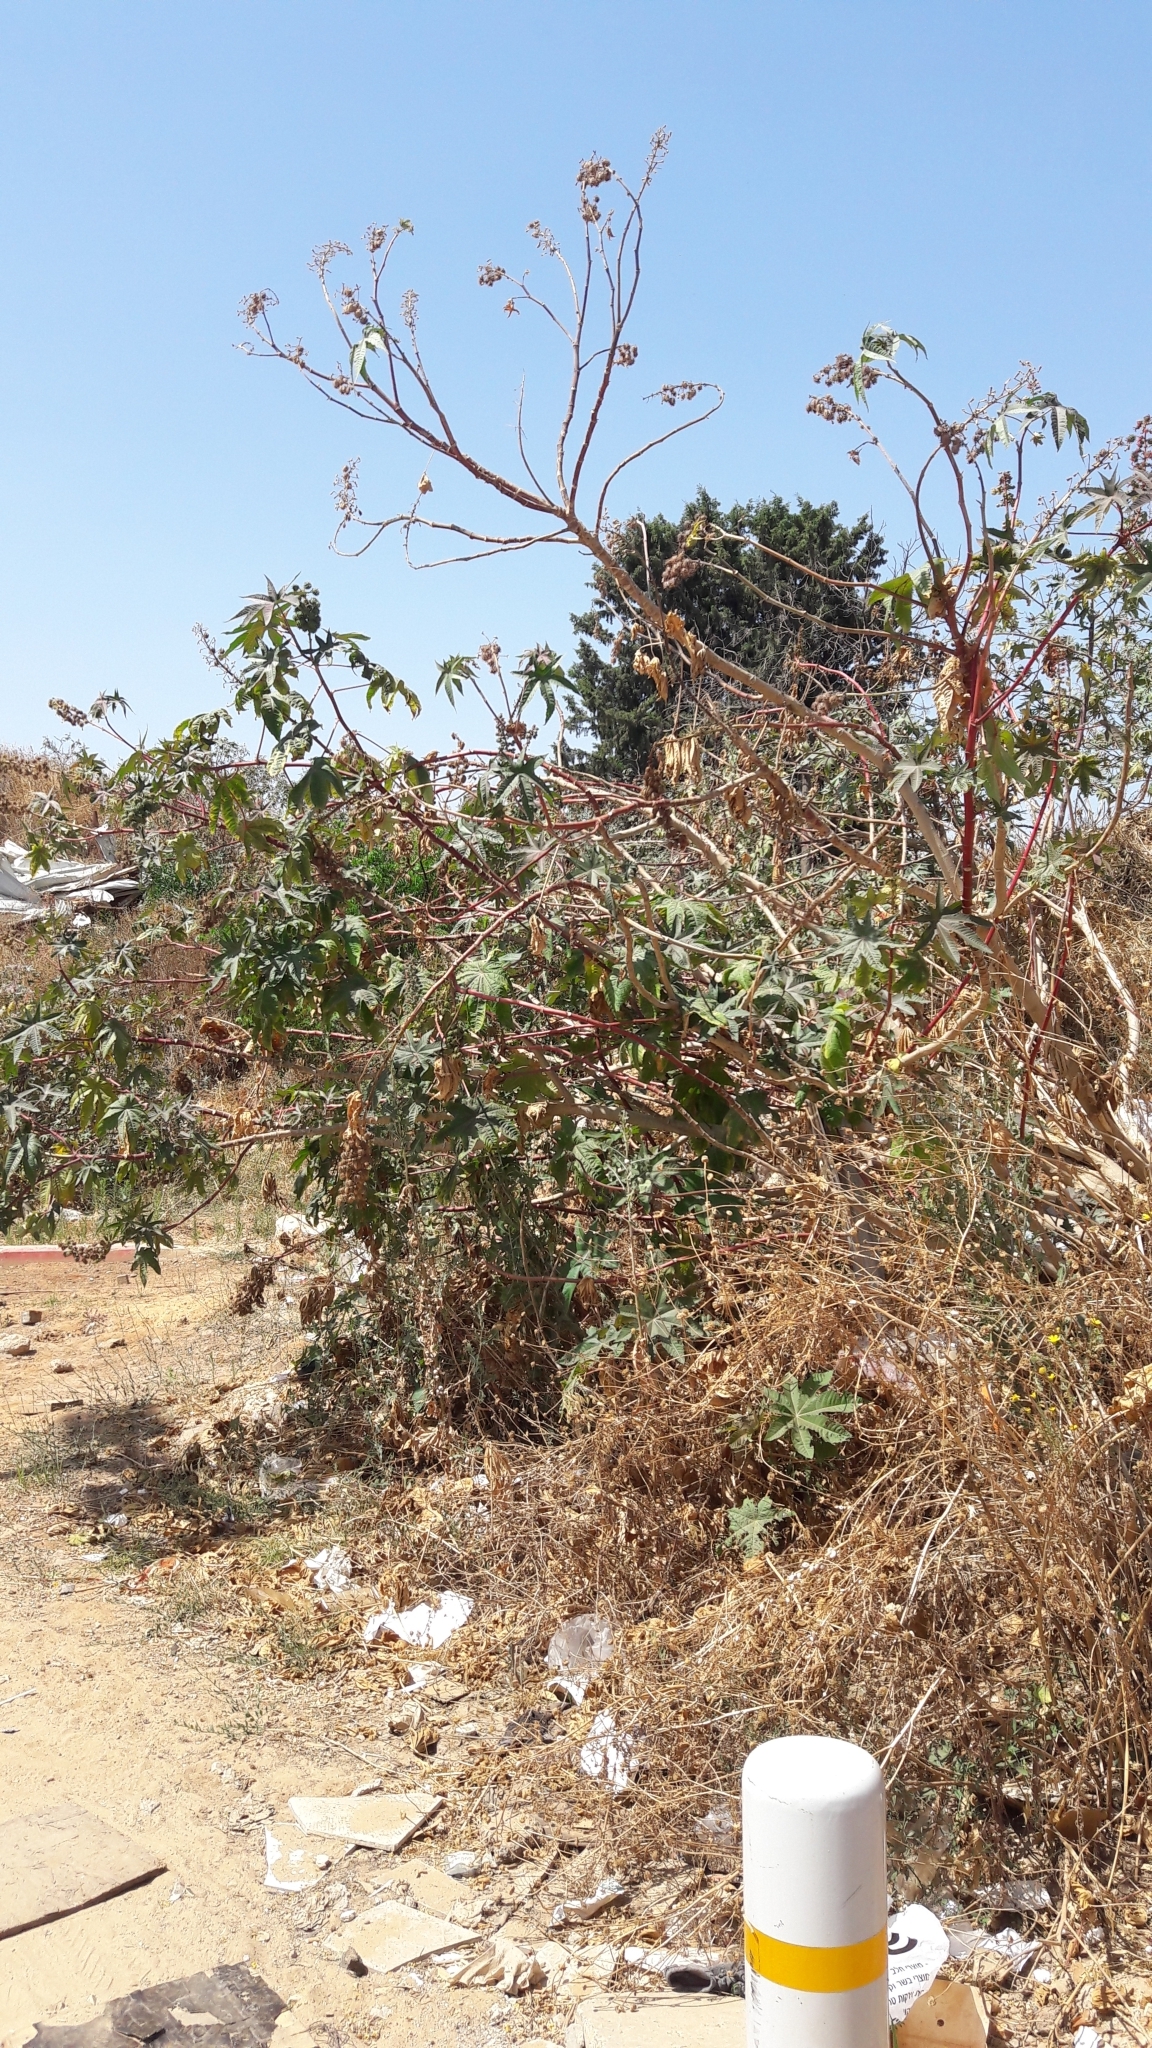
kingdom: Plantae
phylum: Tracheophyta
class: Magnoliopsida
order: Malpighiales
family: Euphorbiaceae
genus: Ricinus
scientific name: Ricinus communis
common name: Castor-oil-plant
